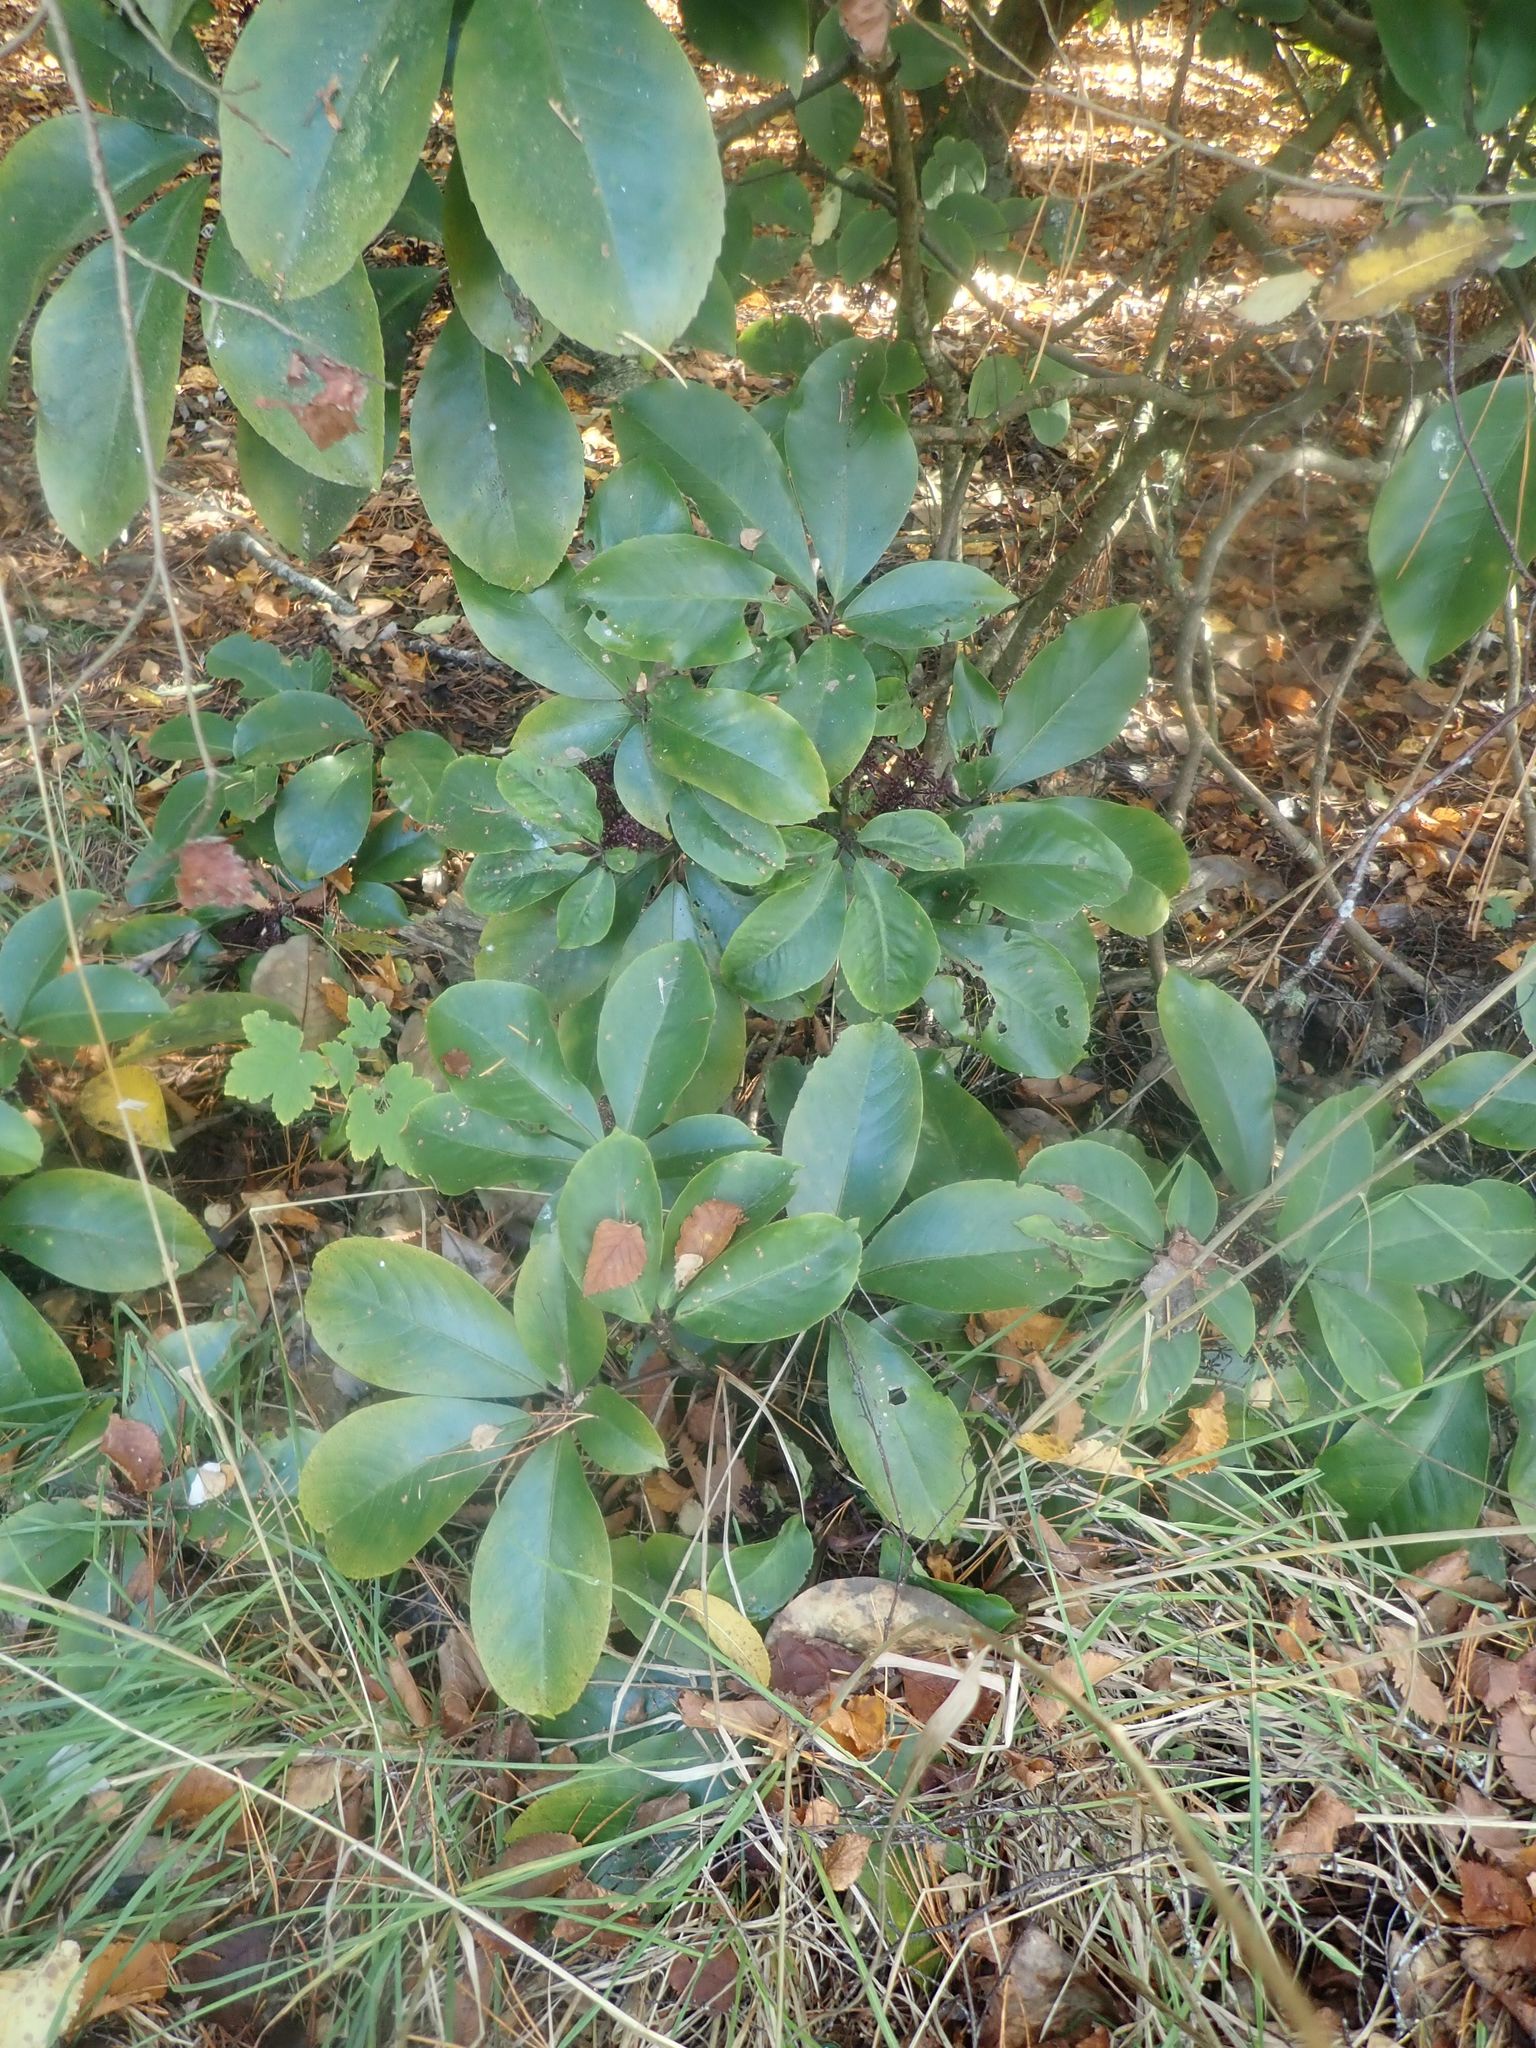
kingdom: Plantae
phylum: Tracheophyta
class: Magnoliopsida
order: Apiales
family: Araliaceae
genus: Neopanax
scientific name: Neopanax laetus
